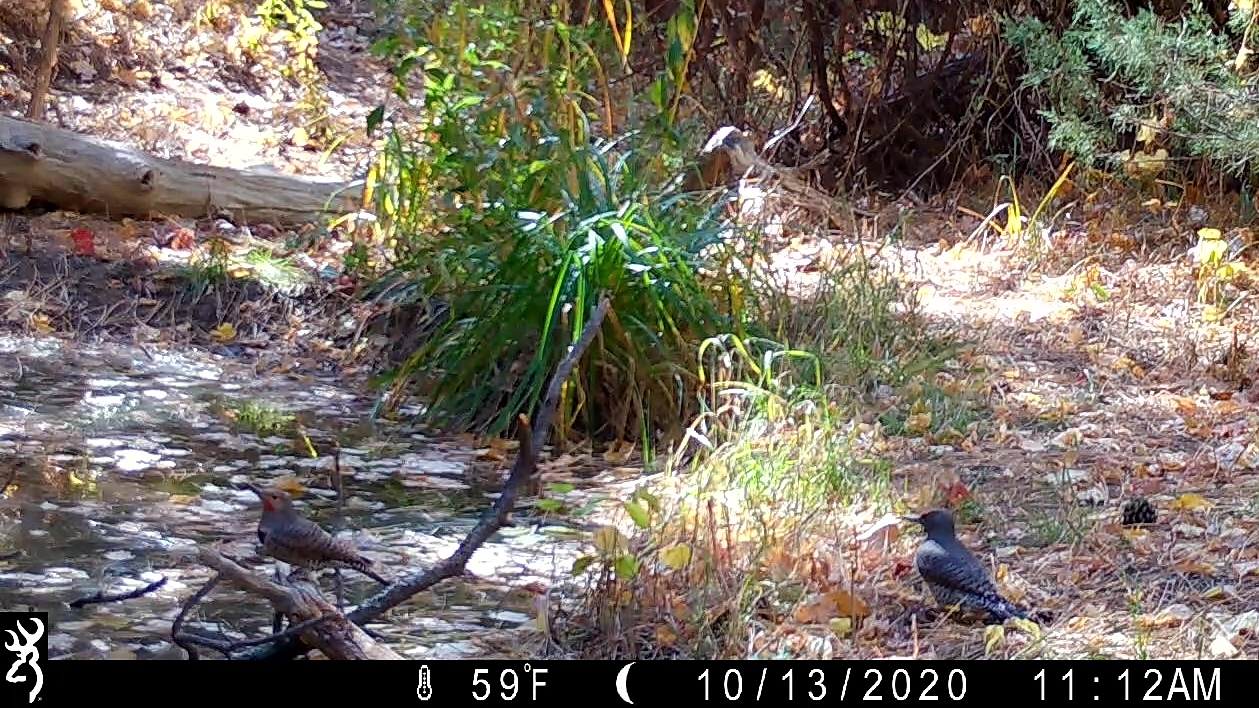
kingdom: Animalia
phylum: Chordata
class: Aves
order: Piciformes
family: Picidae
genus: Colaptes
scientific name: Colaptes
